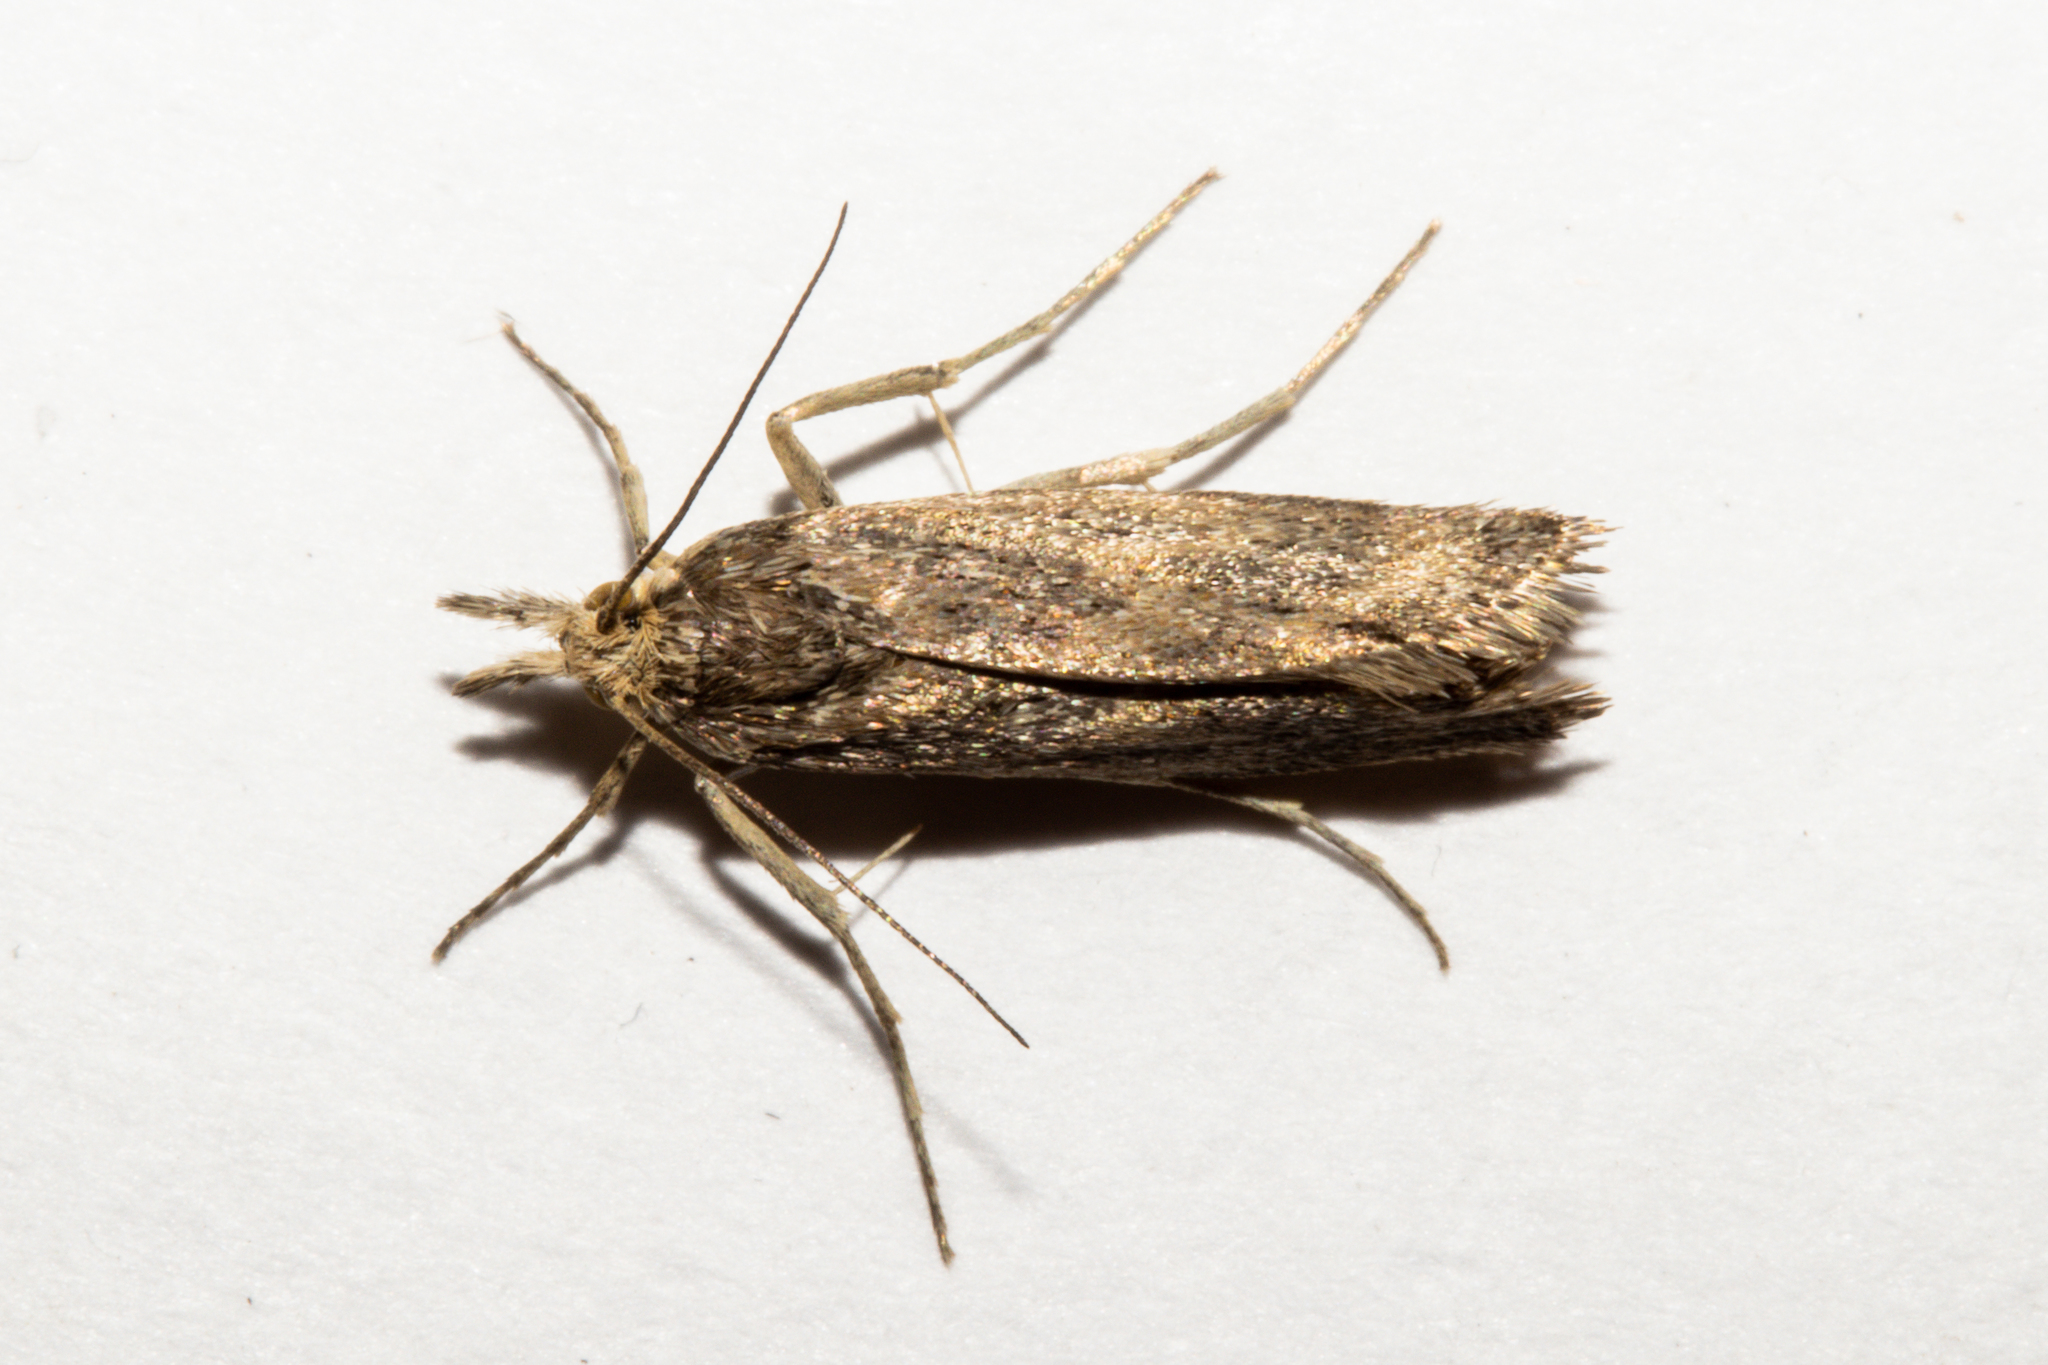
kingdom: Animalia
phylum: Arthropoda
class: Insecta
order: Lepidoptera
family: Crambidae
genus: Orocrambus
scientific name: Orocrambus corruptus
